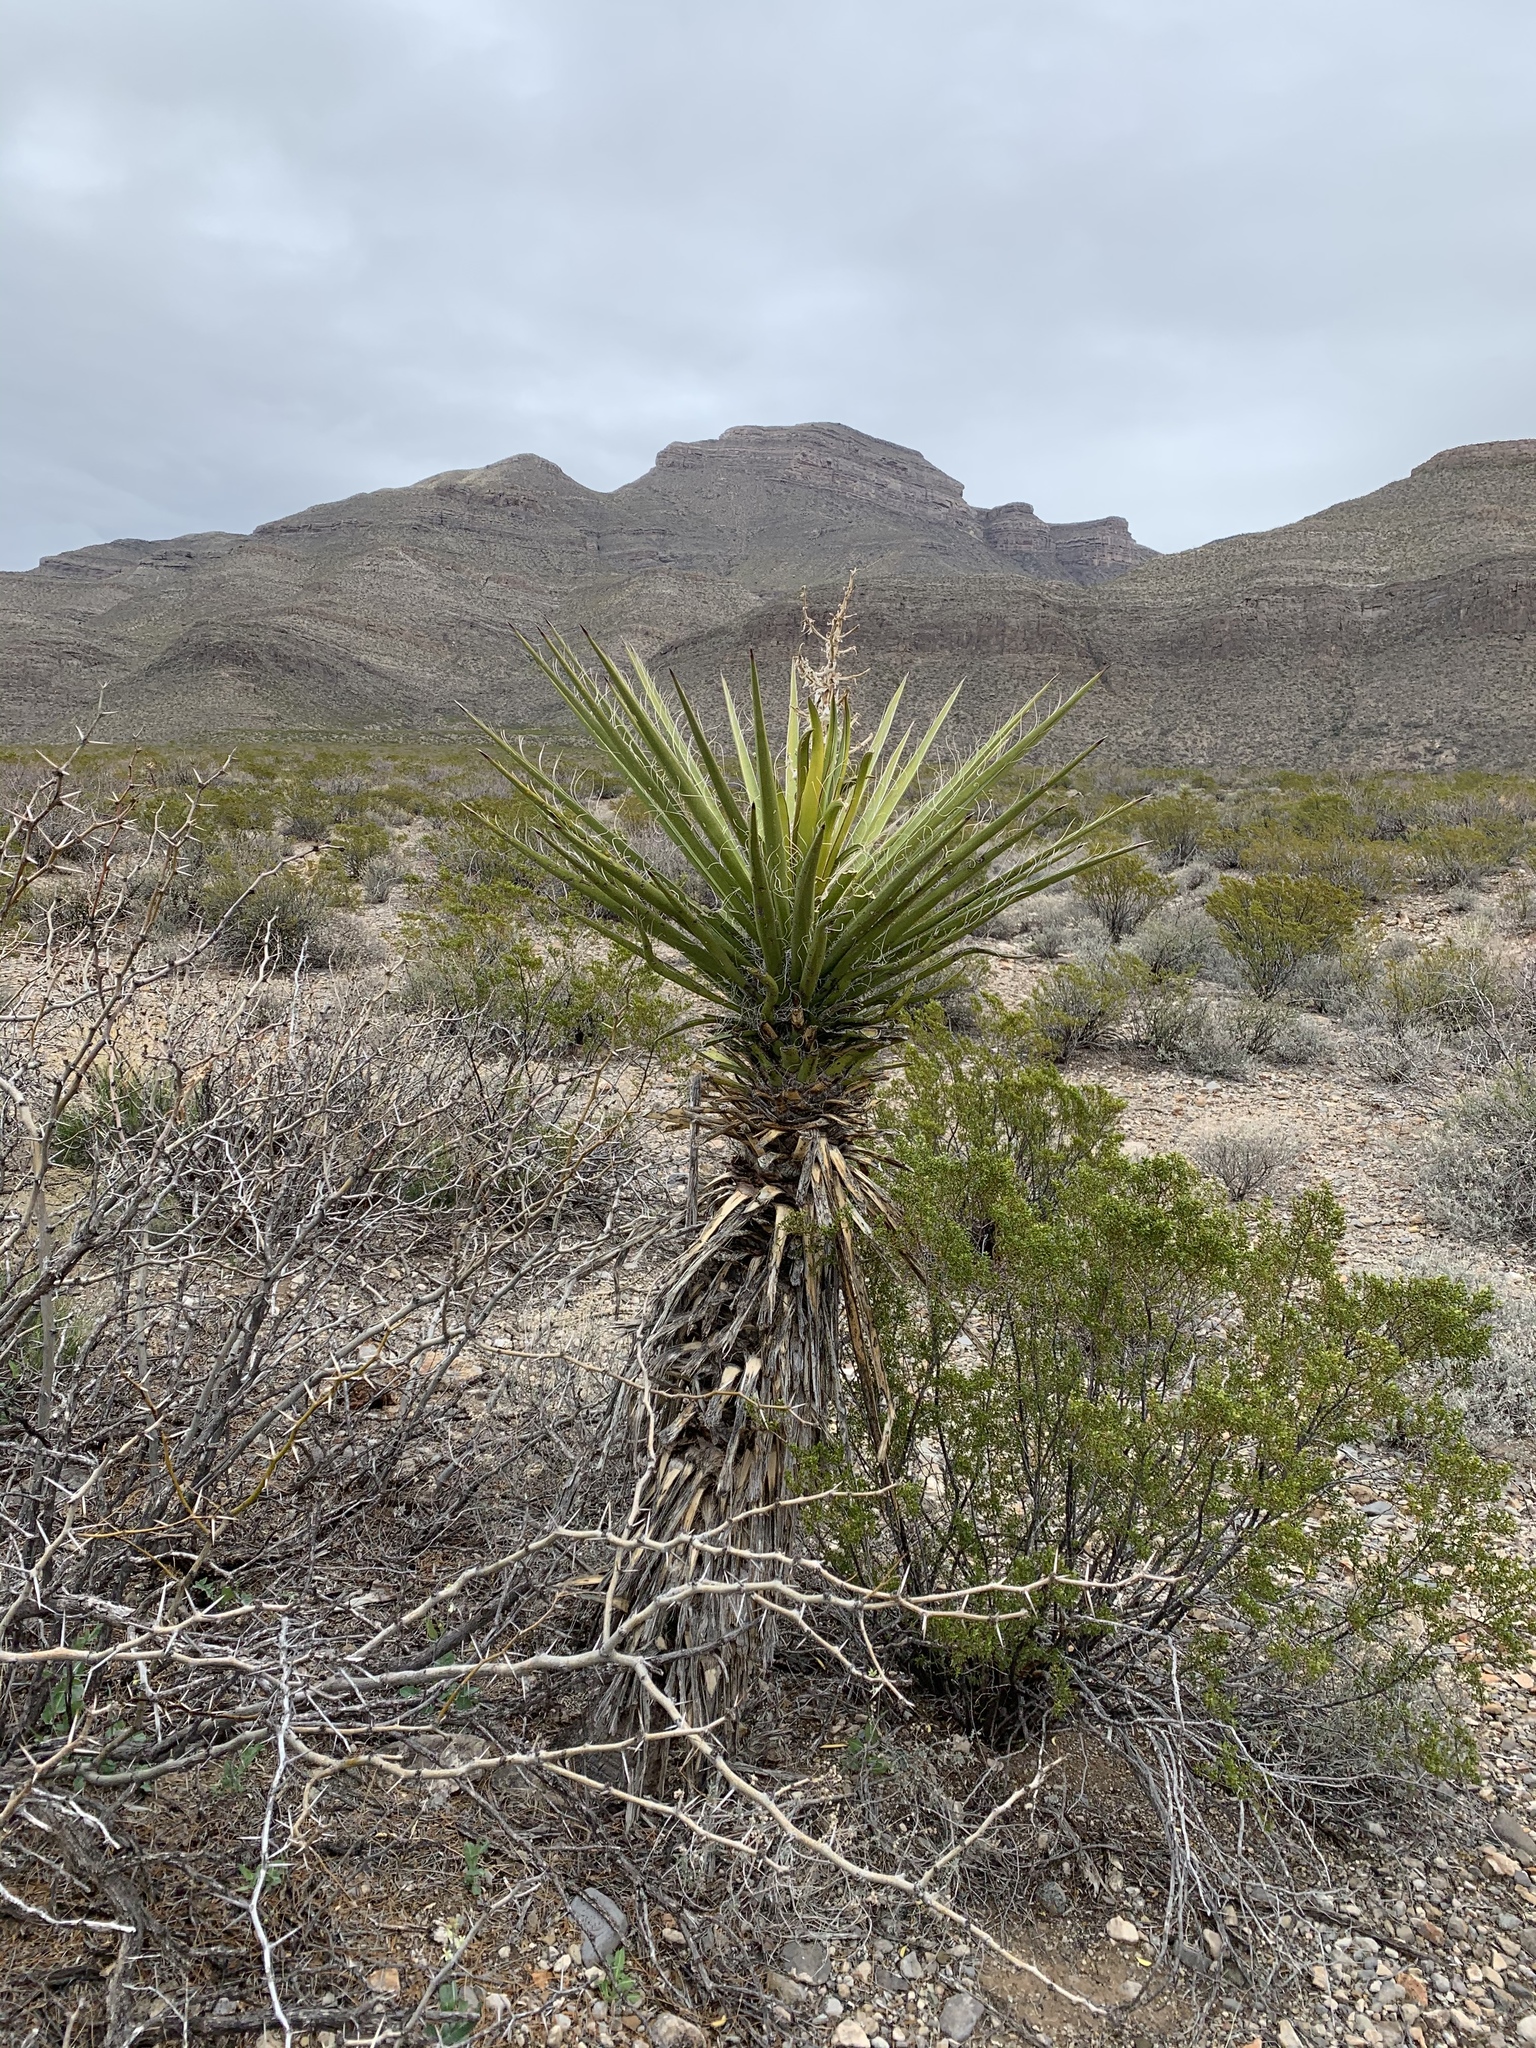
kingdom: Plantae
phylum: Tracheophyta
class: Liliopsida
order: Asparagales
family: Asparagaceae
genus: Yucca
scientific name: Yucca treculiana
